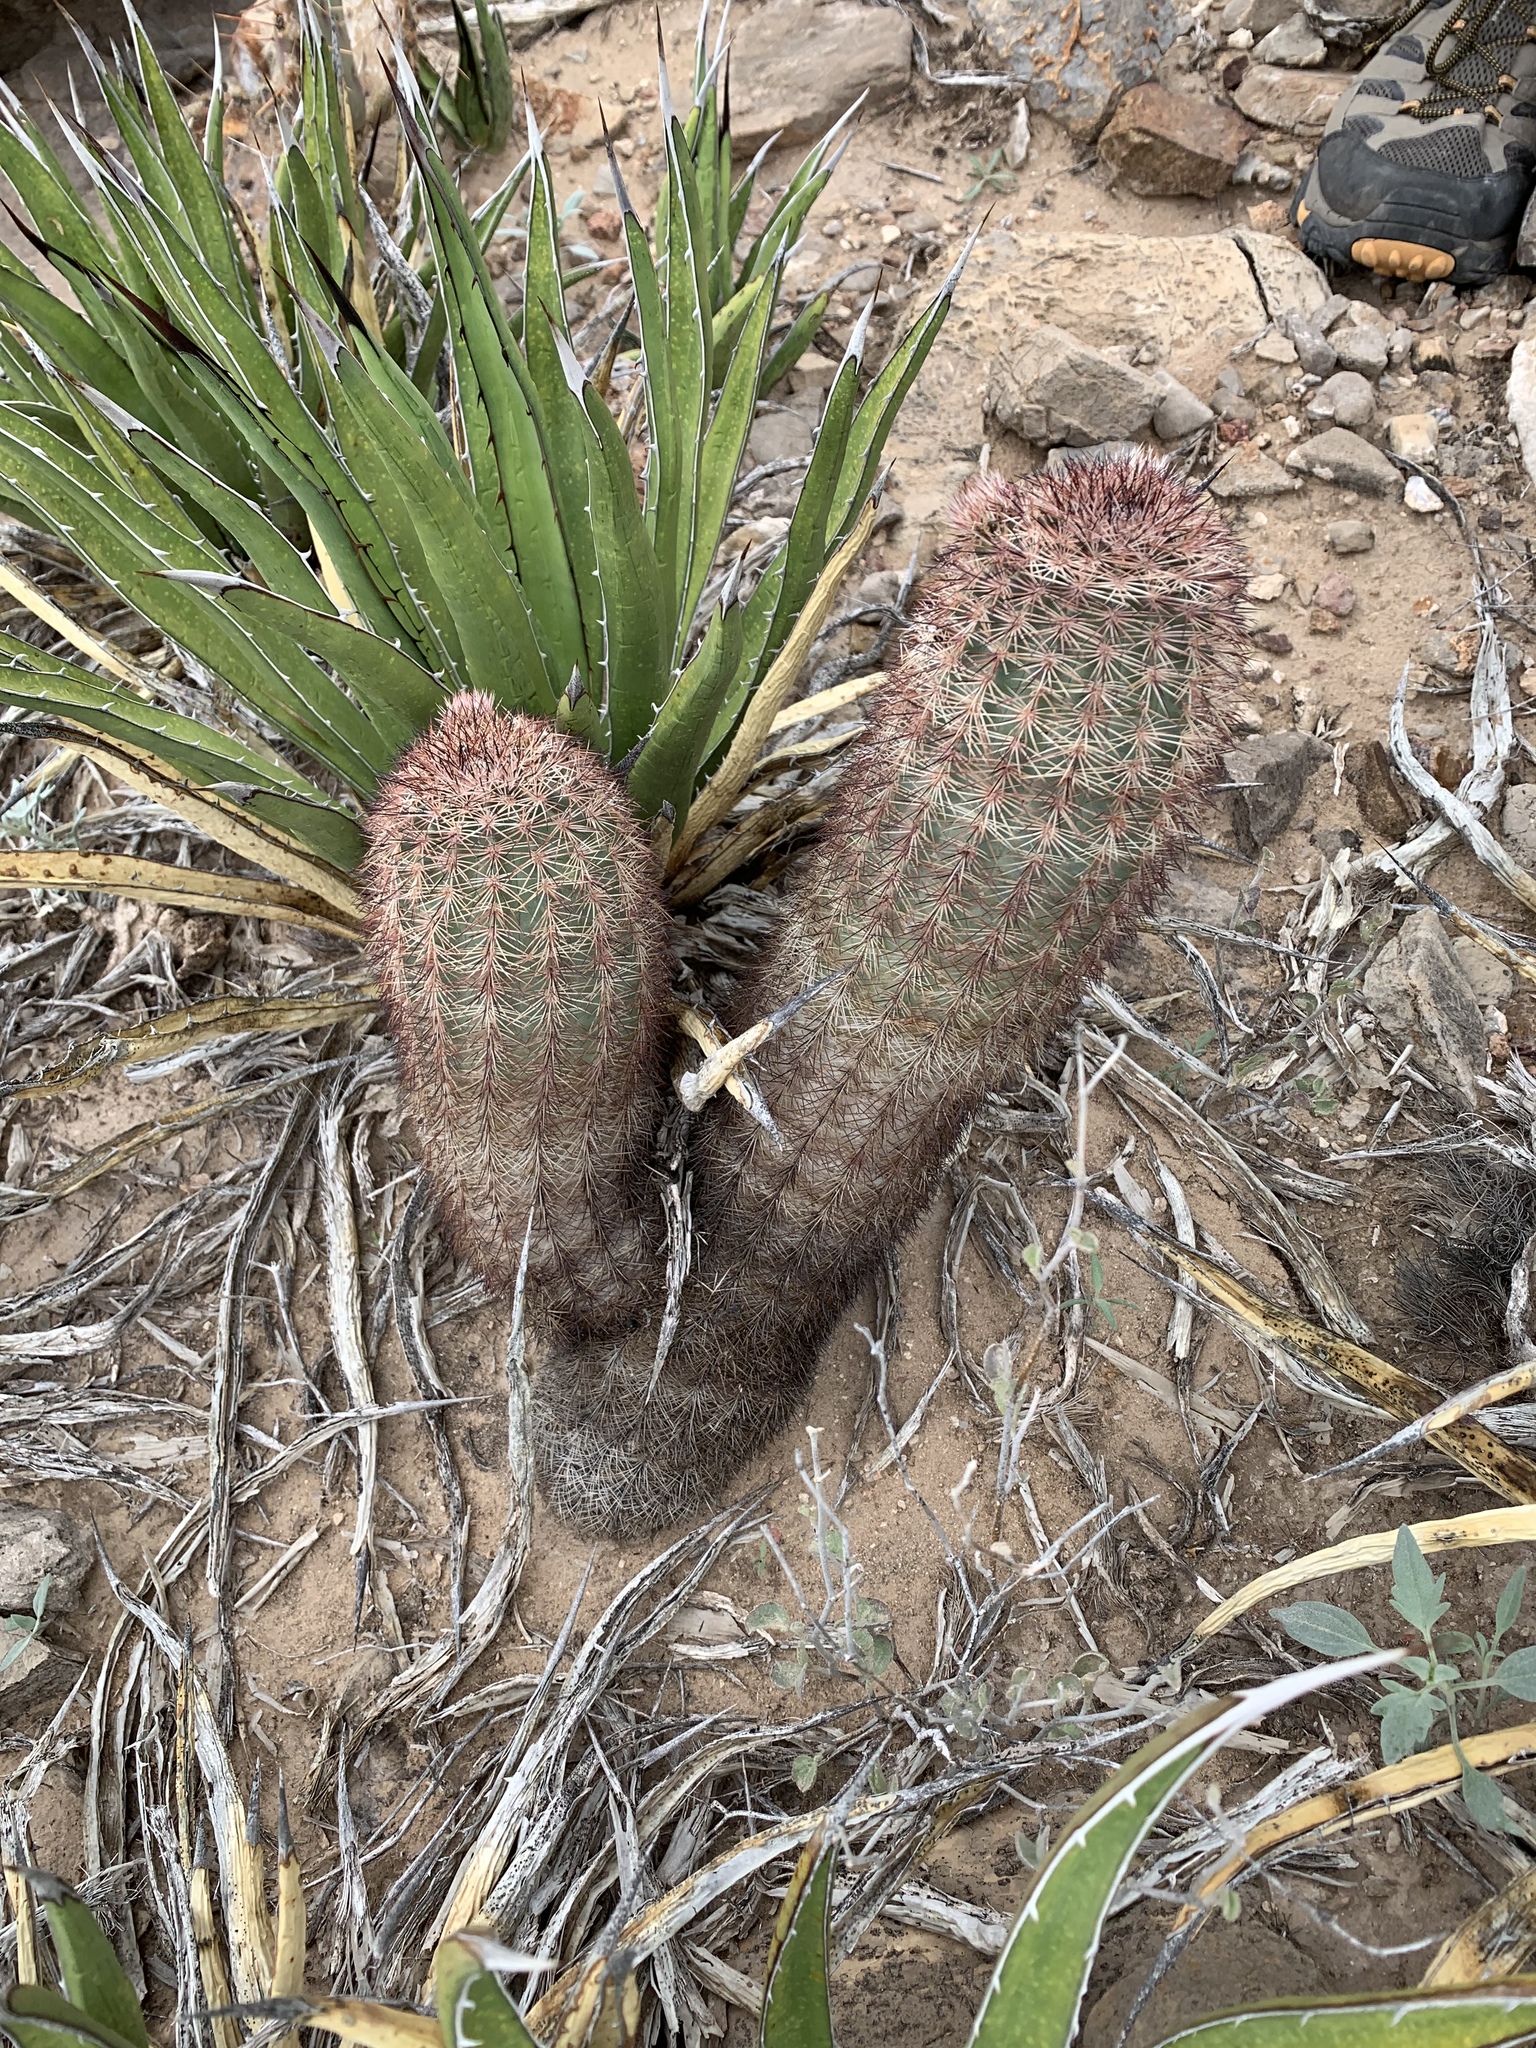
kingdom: Plantae
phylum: Tracheophyta
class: Magnoliopsida
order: Caryophyllales
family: Cactaceae
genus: Echinocereus
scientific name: Echinocereus dasyacanthus
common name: Spiny hedgehog cactus
